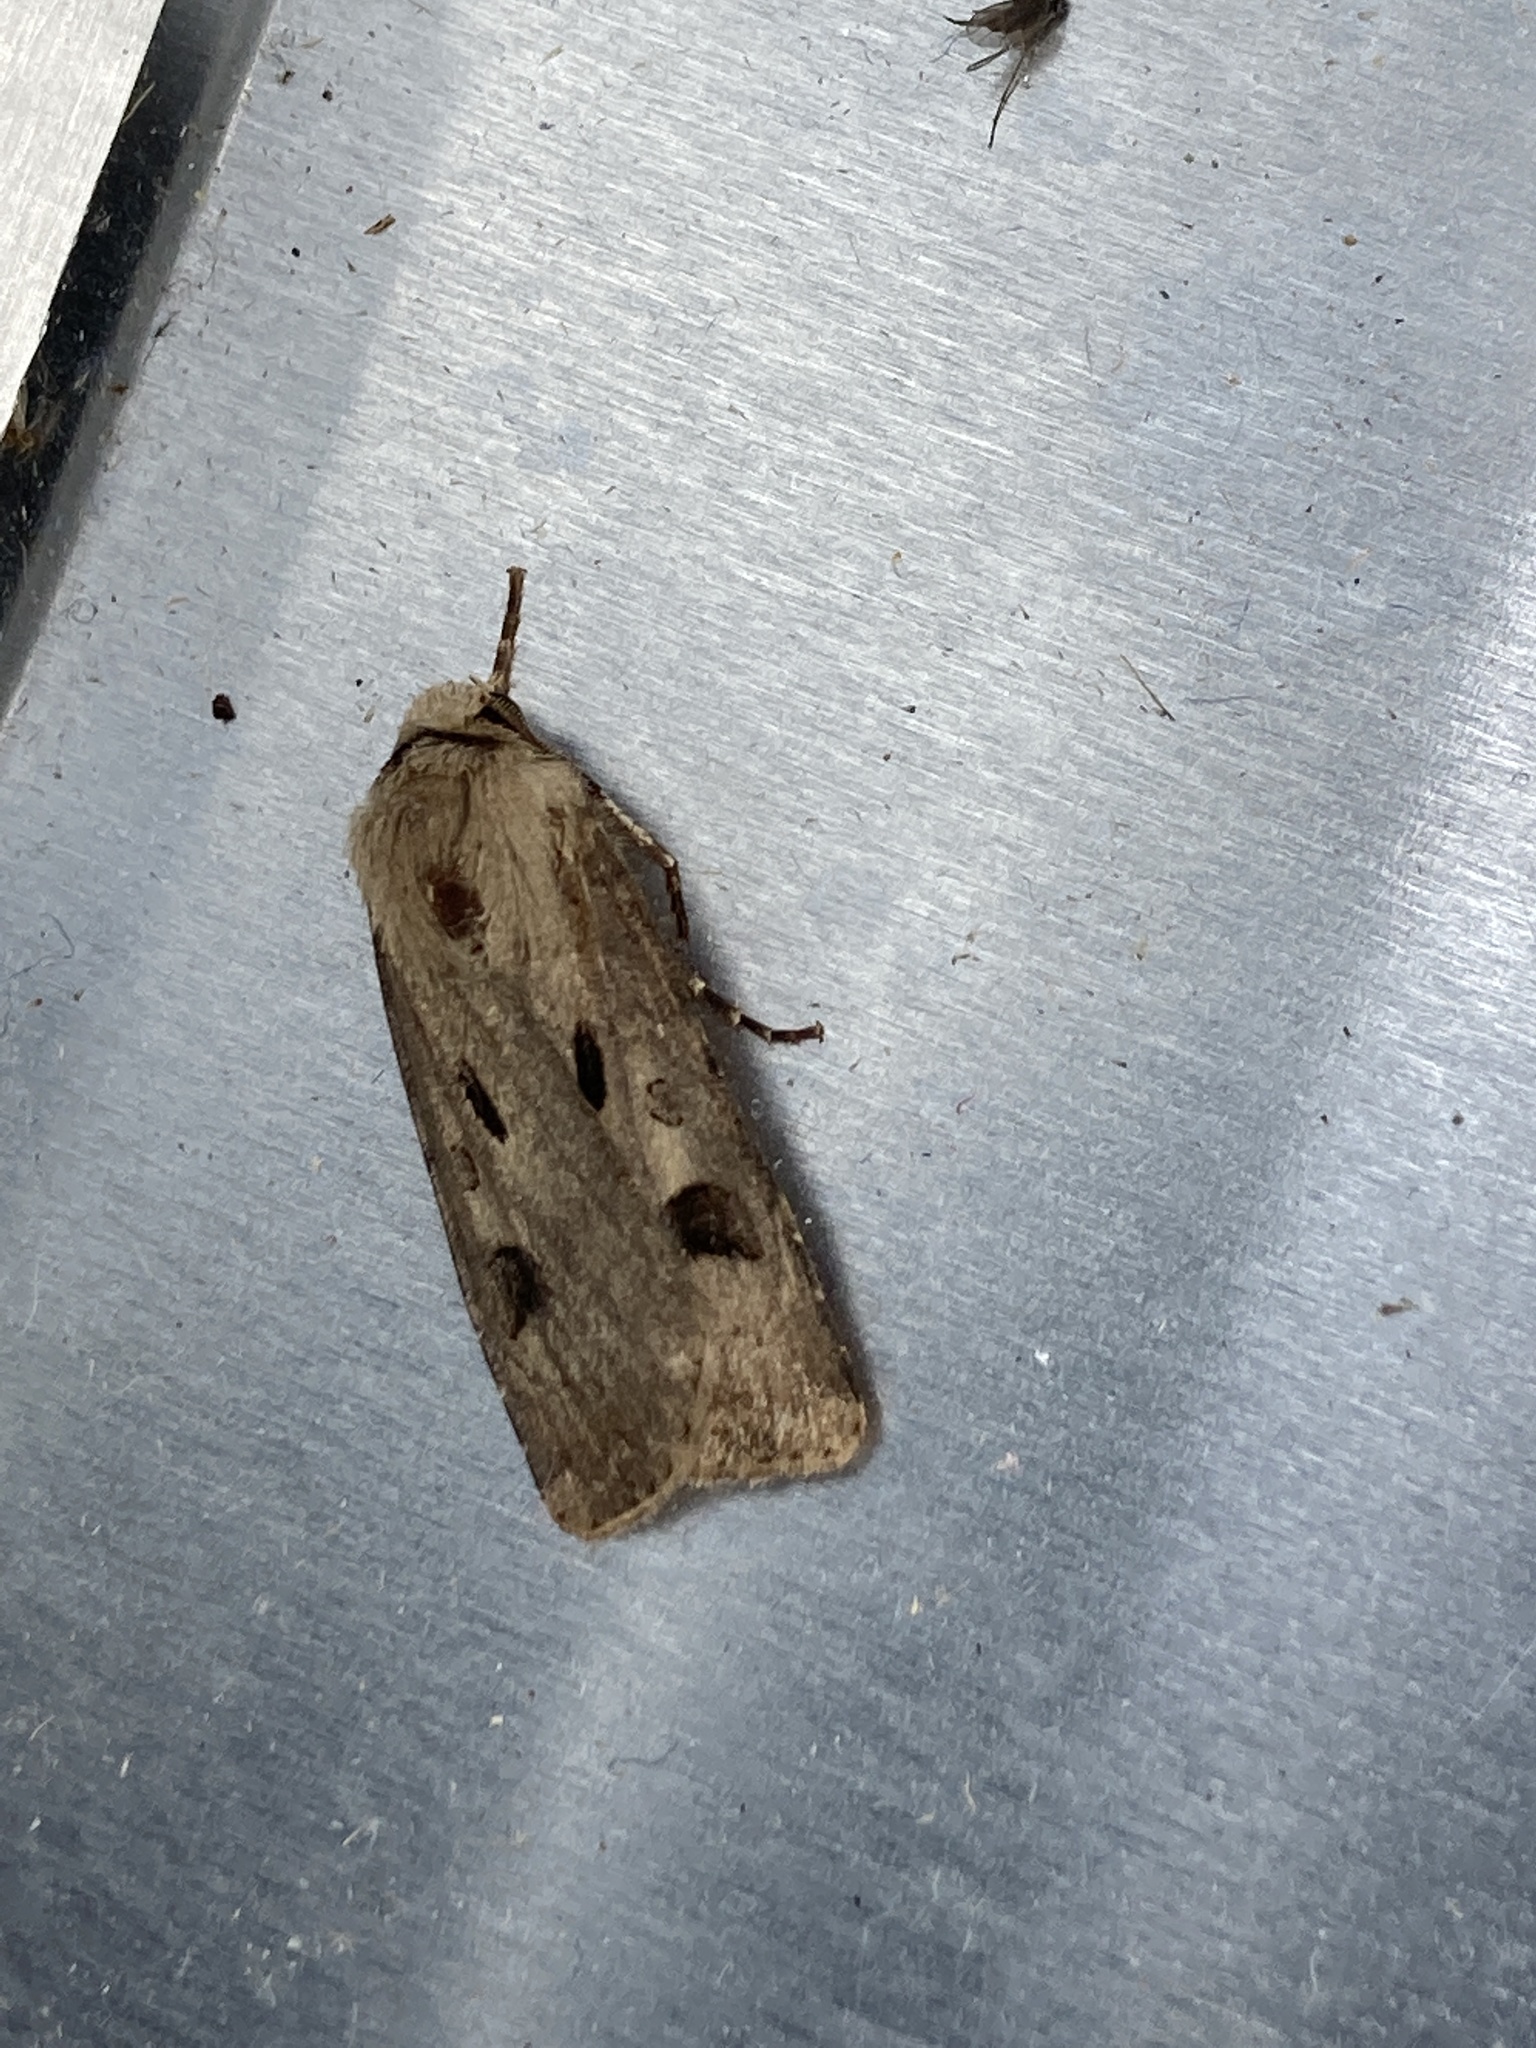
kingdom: Animalia
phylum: Arthropoda
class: Insecta
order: Lepidoptera
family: Noctuidae
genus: Agrotis
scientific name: Agrotis exclamationis
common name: Heart and dart
